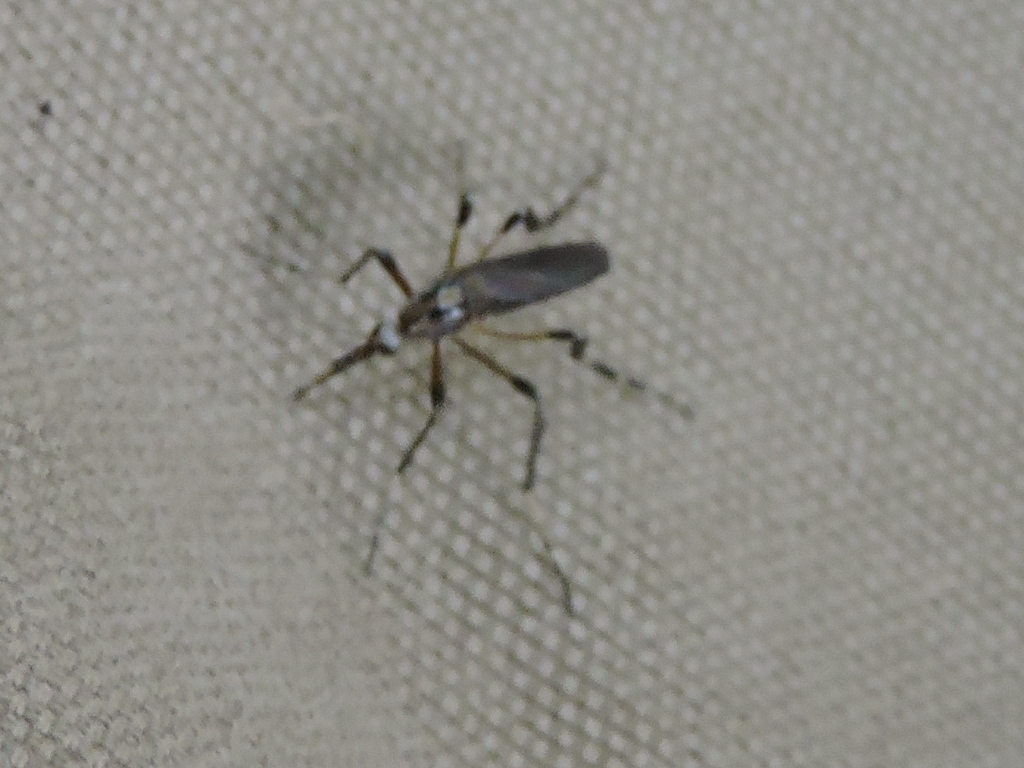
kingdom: Animalia
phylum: Arthropoda
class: Insecta
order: Diptera
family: Culicidae
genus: Psorophora
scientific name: Psorophora ciliata
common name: Gallinipper
